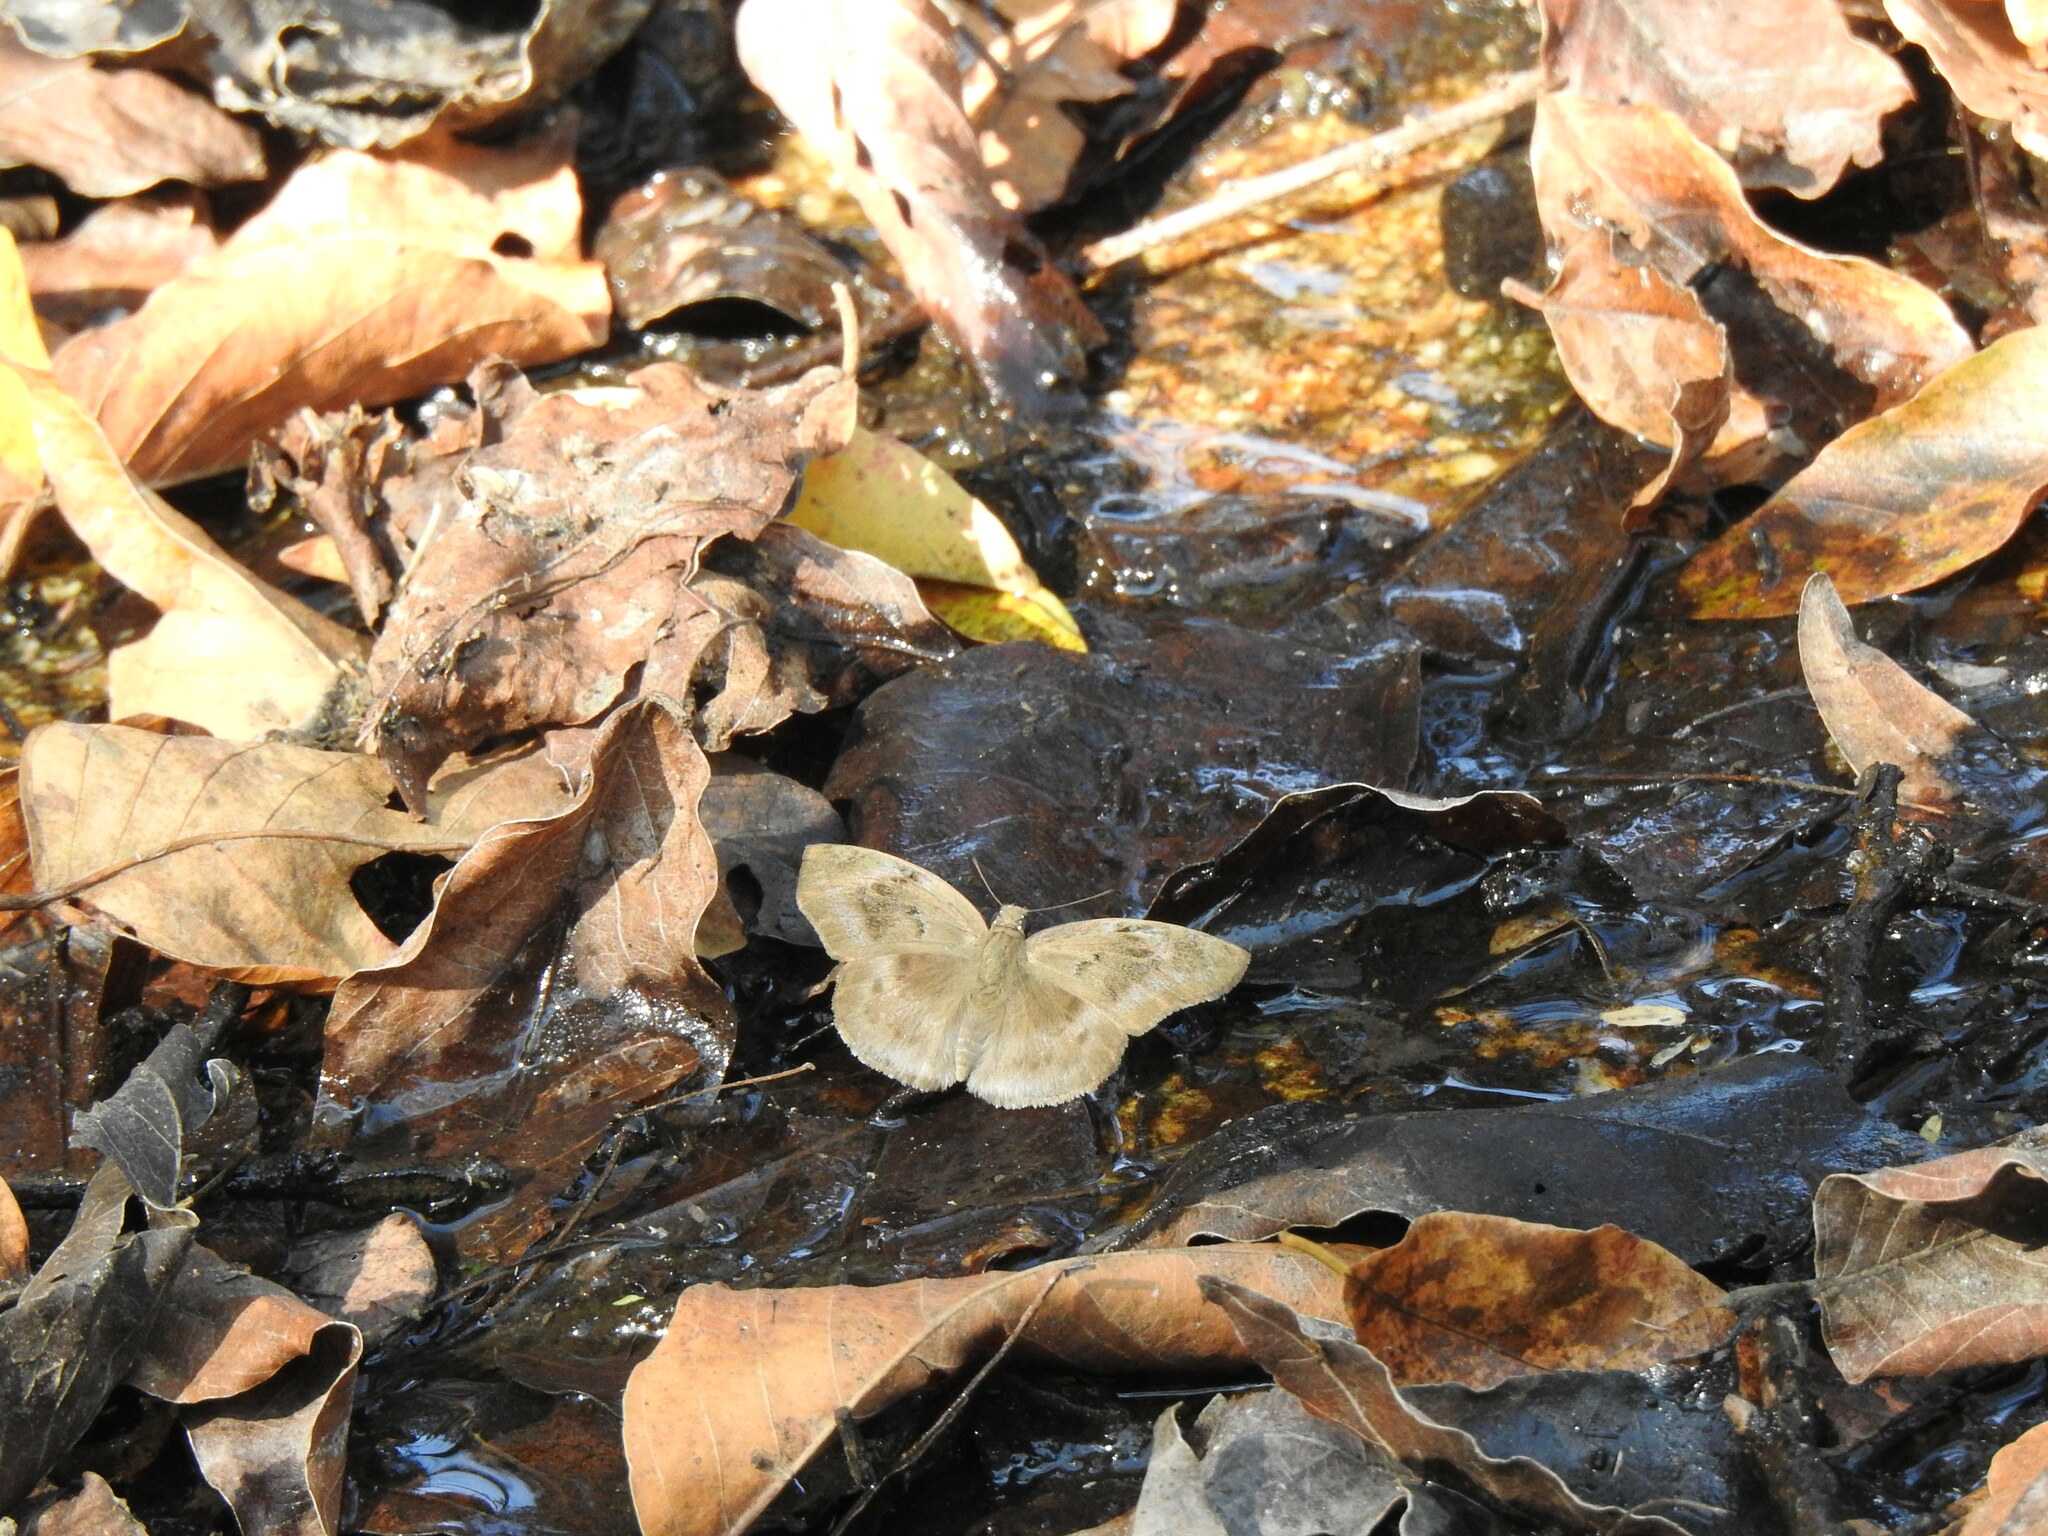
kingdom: Animalia
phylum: Arthropoda
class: Insecta
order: Lepidoptera
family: Hesperiidae
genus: Tagiades
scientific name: Tagiades flesus
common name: Clouded flat
